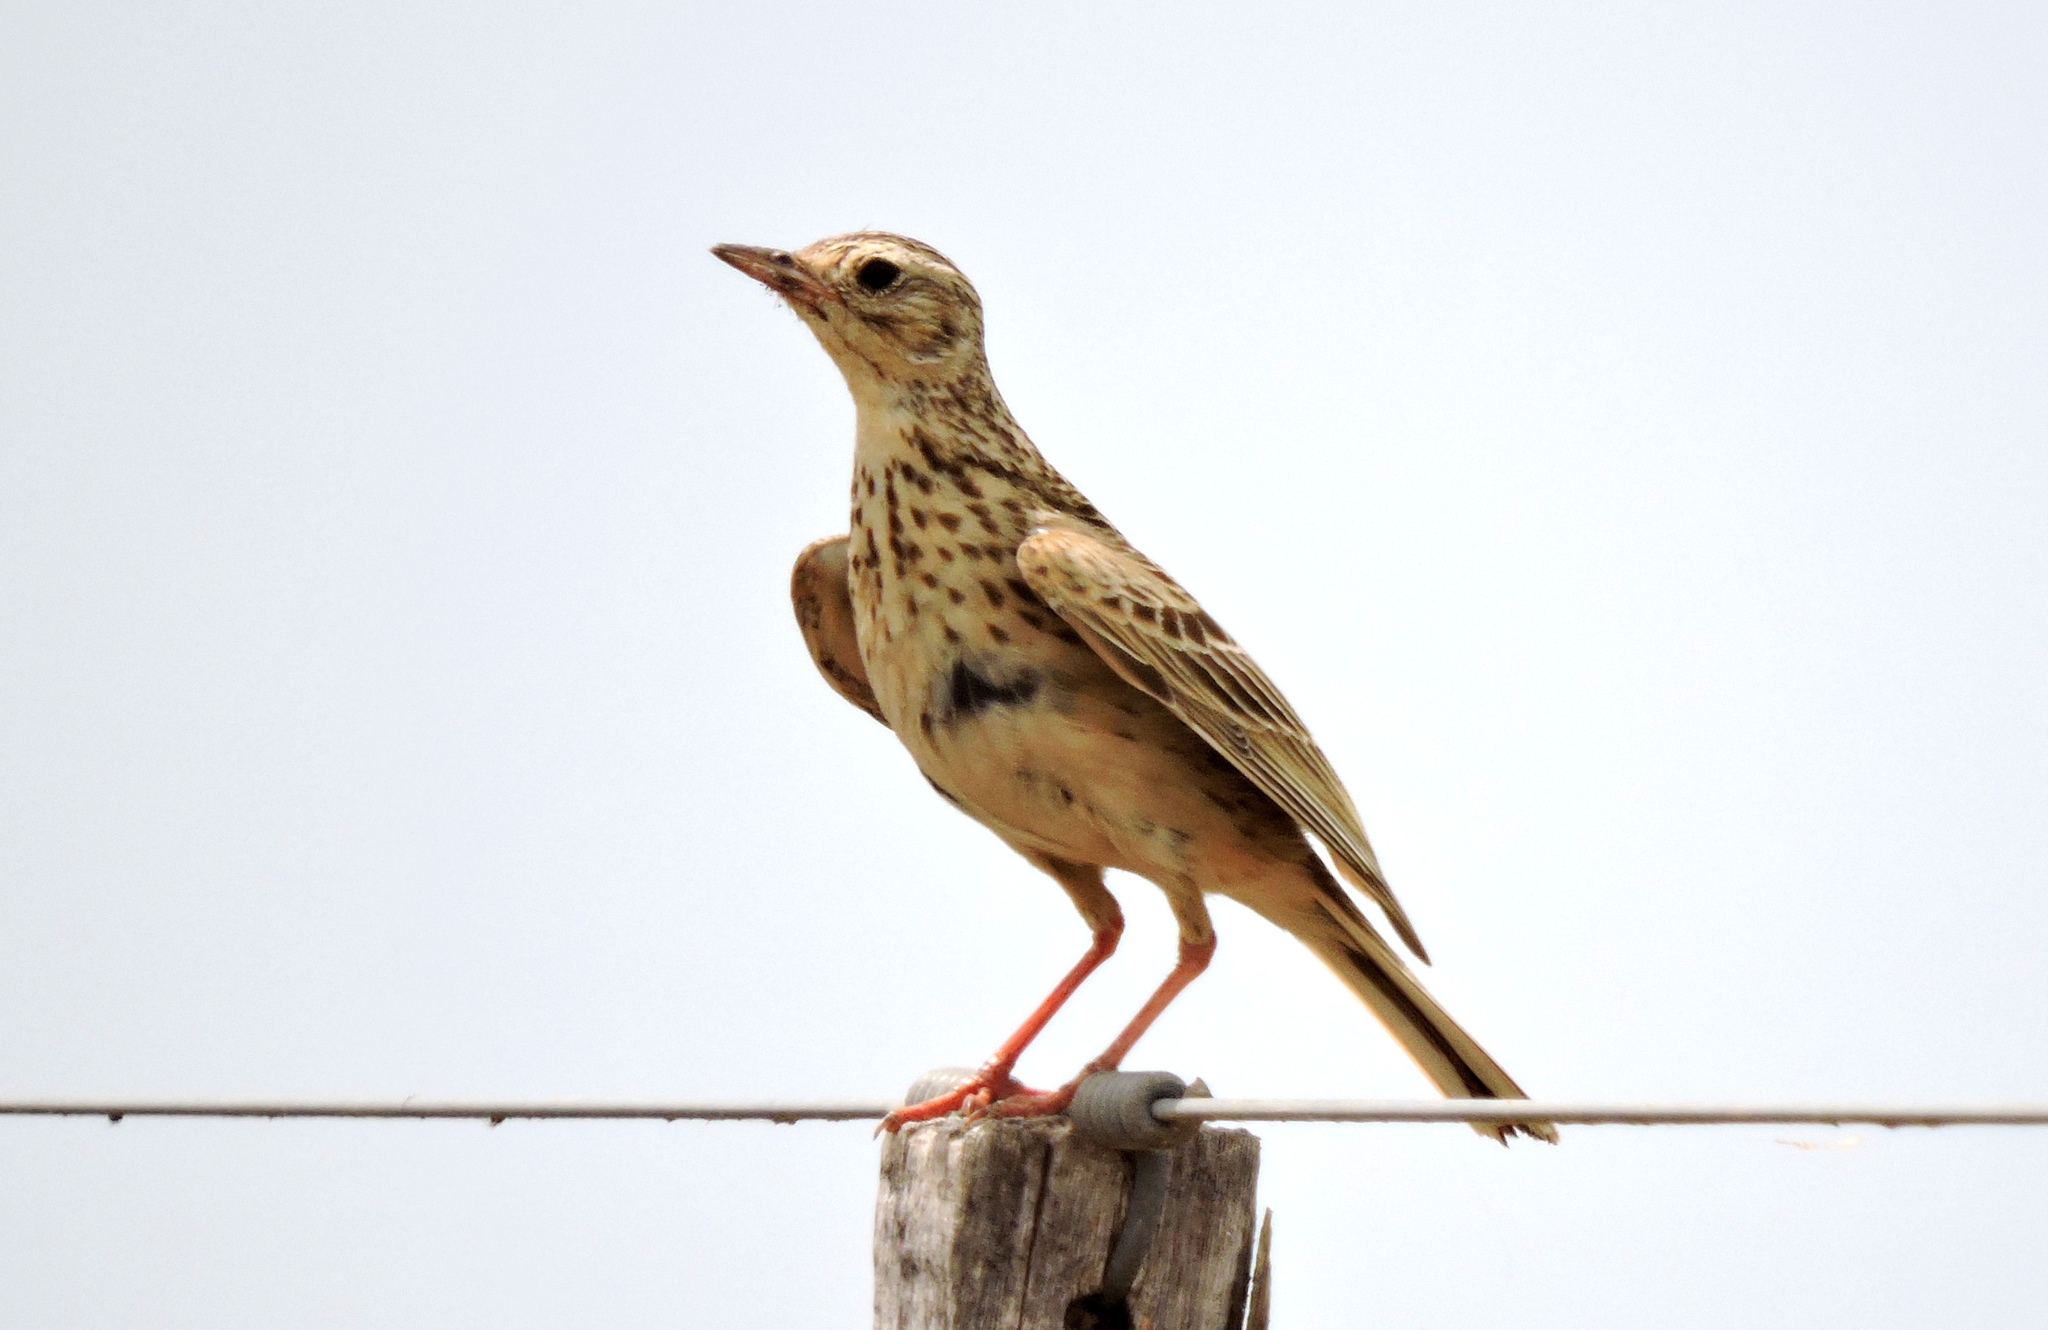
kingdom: Animalia
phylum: Chordata
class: Aves
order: Passeriformes
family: Motacillidae
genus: Anthus
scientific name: Anthus furcatus
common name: Short-billed pipit
